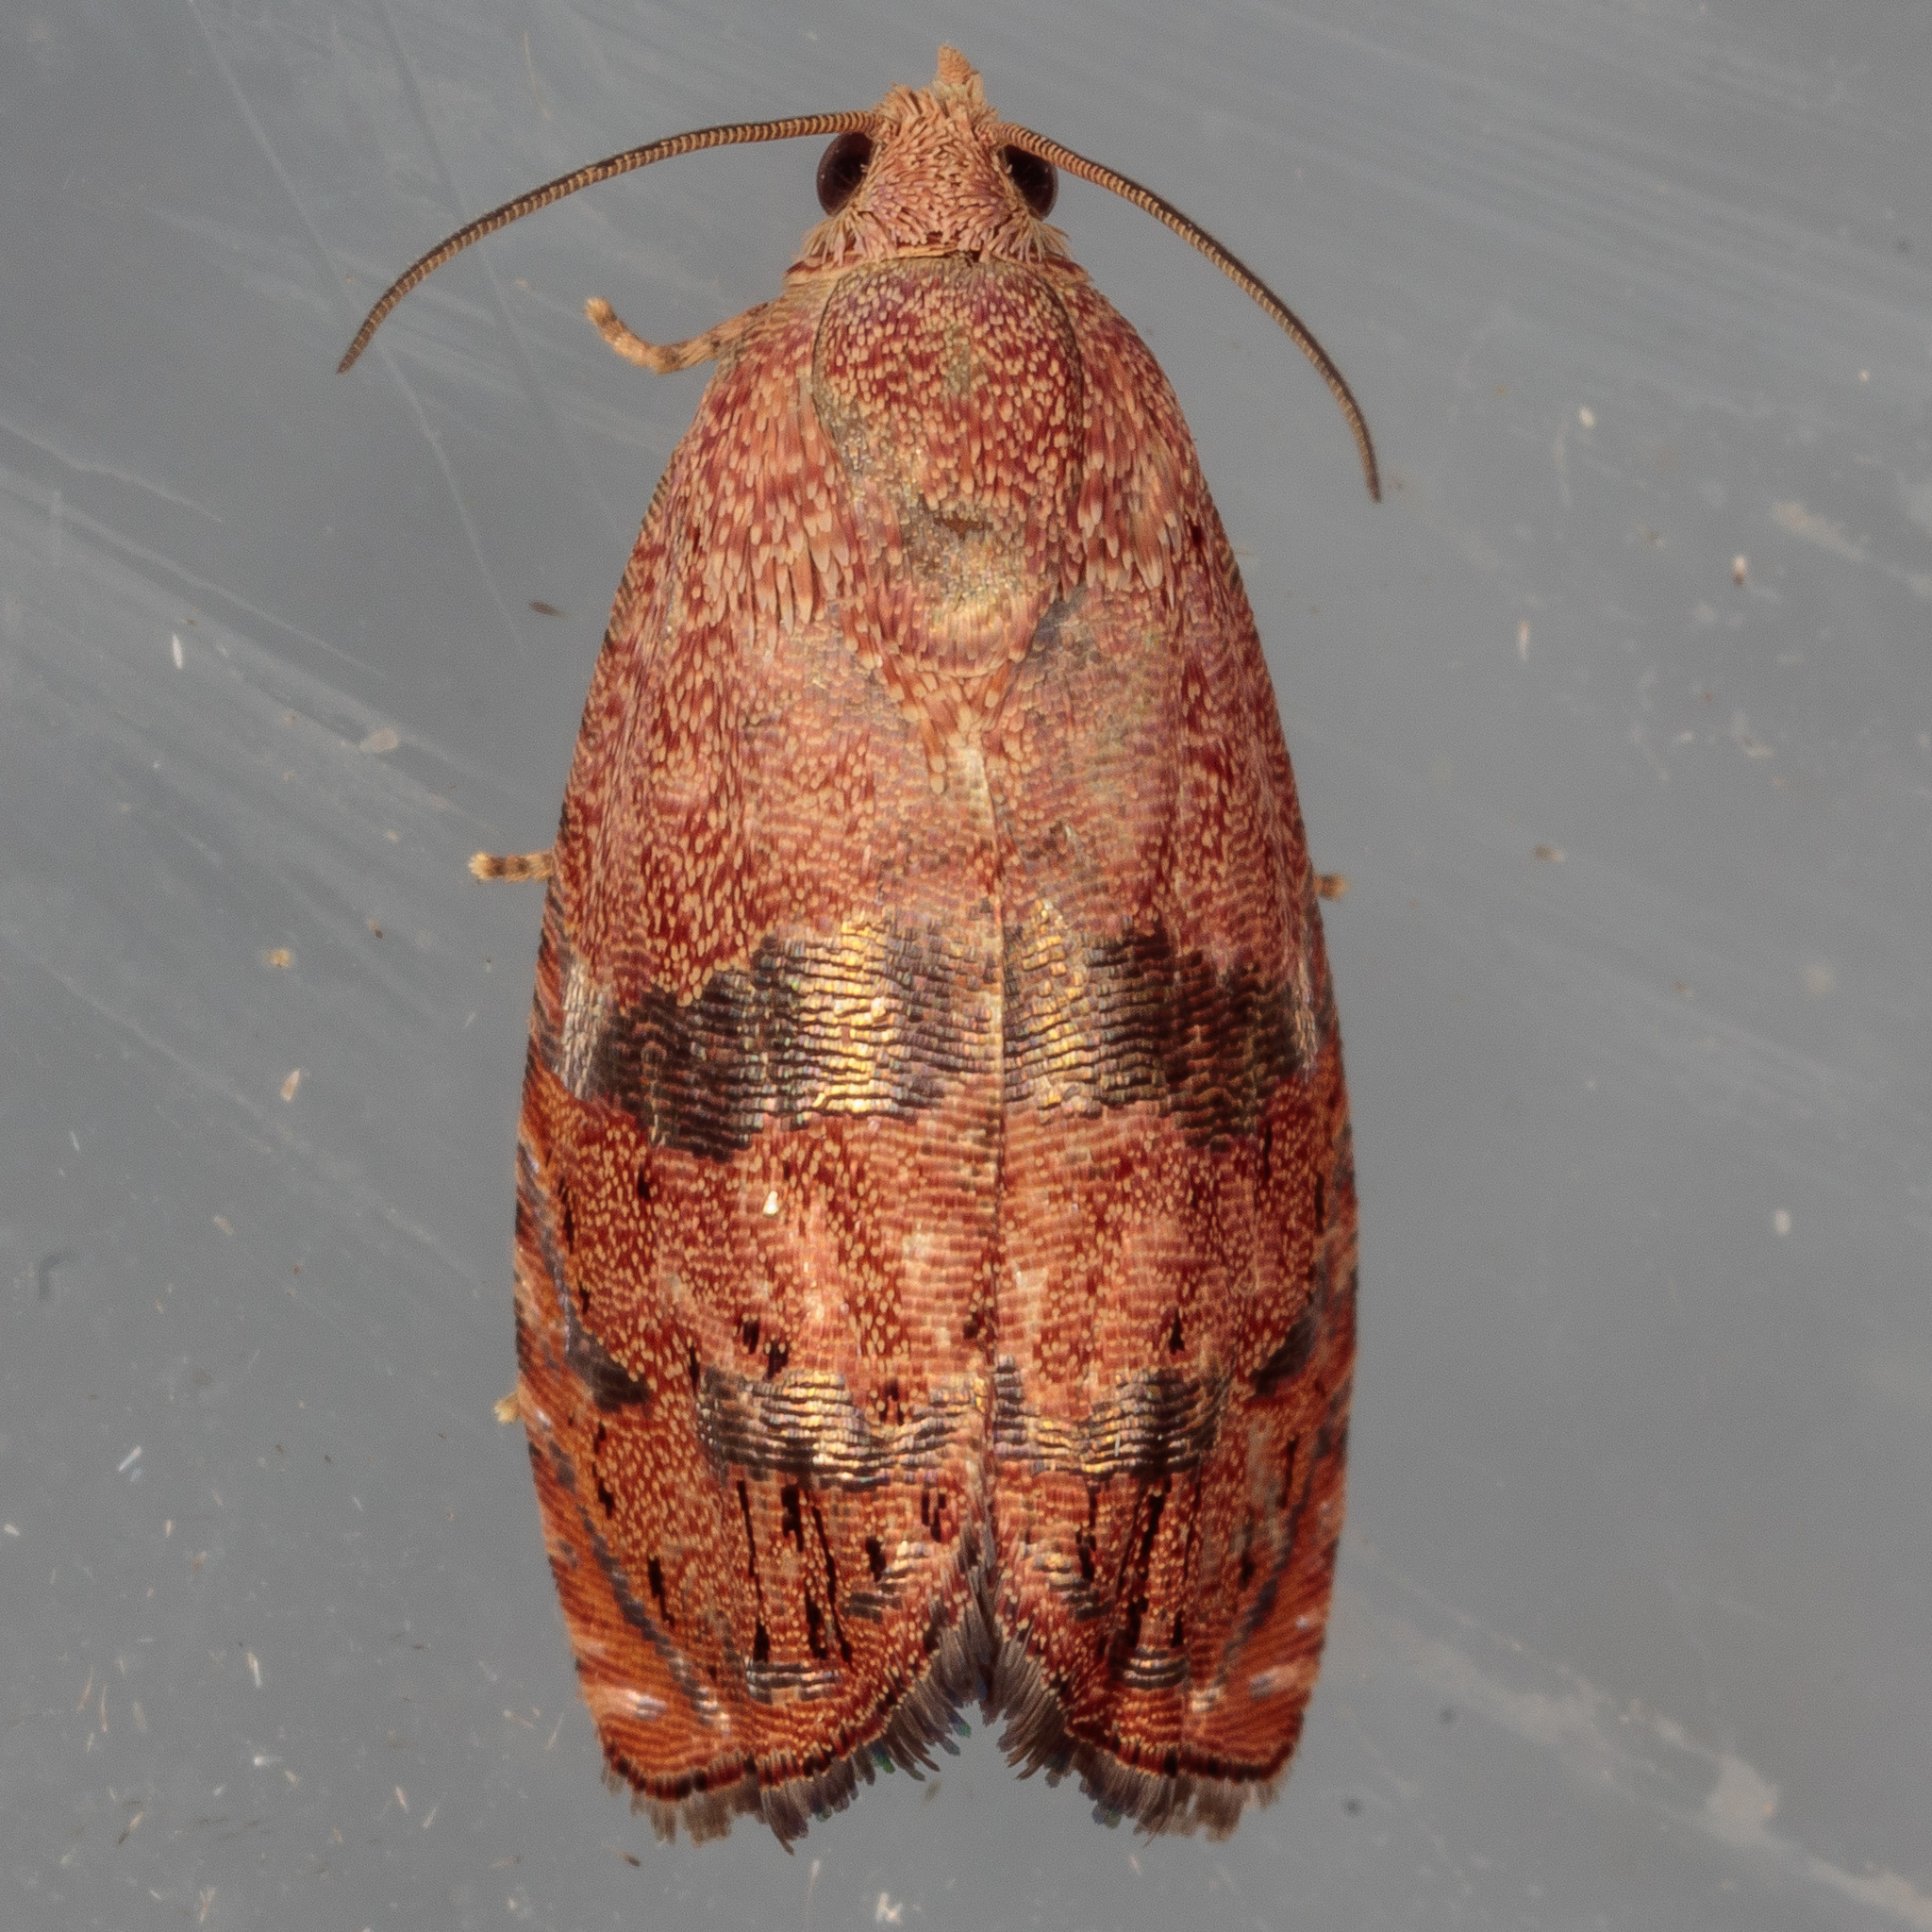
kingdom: Animalia
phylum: Arthropoda
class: Insecta
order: Lepidoptera
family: Tortricidae
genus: Cydia
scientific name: Cydia latiferreana
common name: Filbertworm moth
